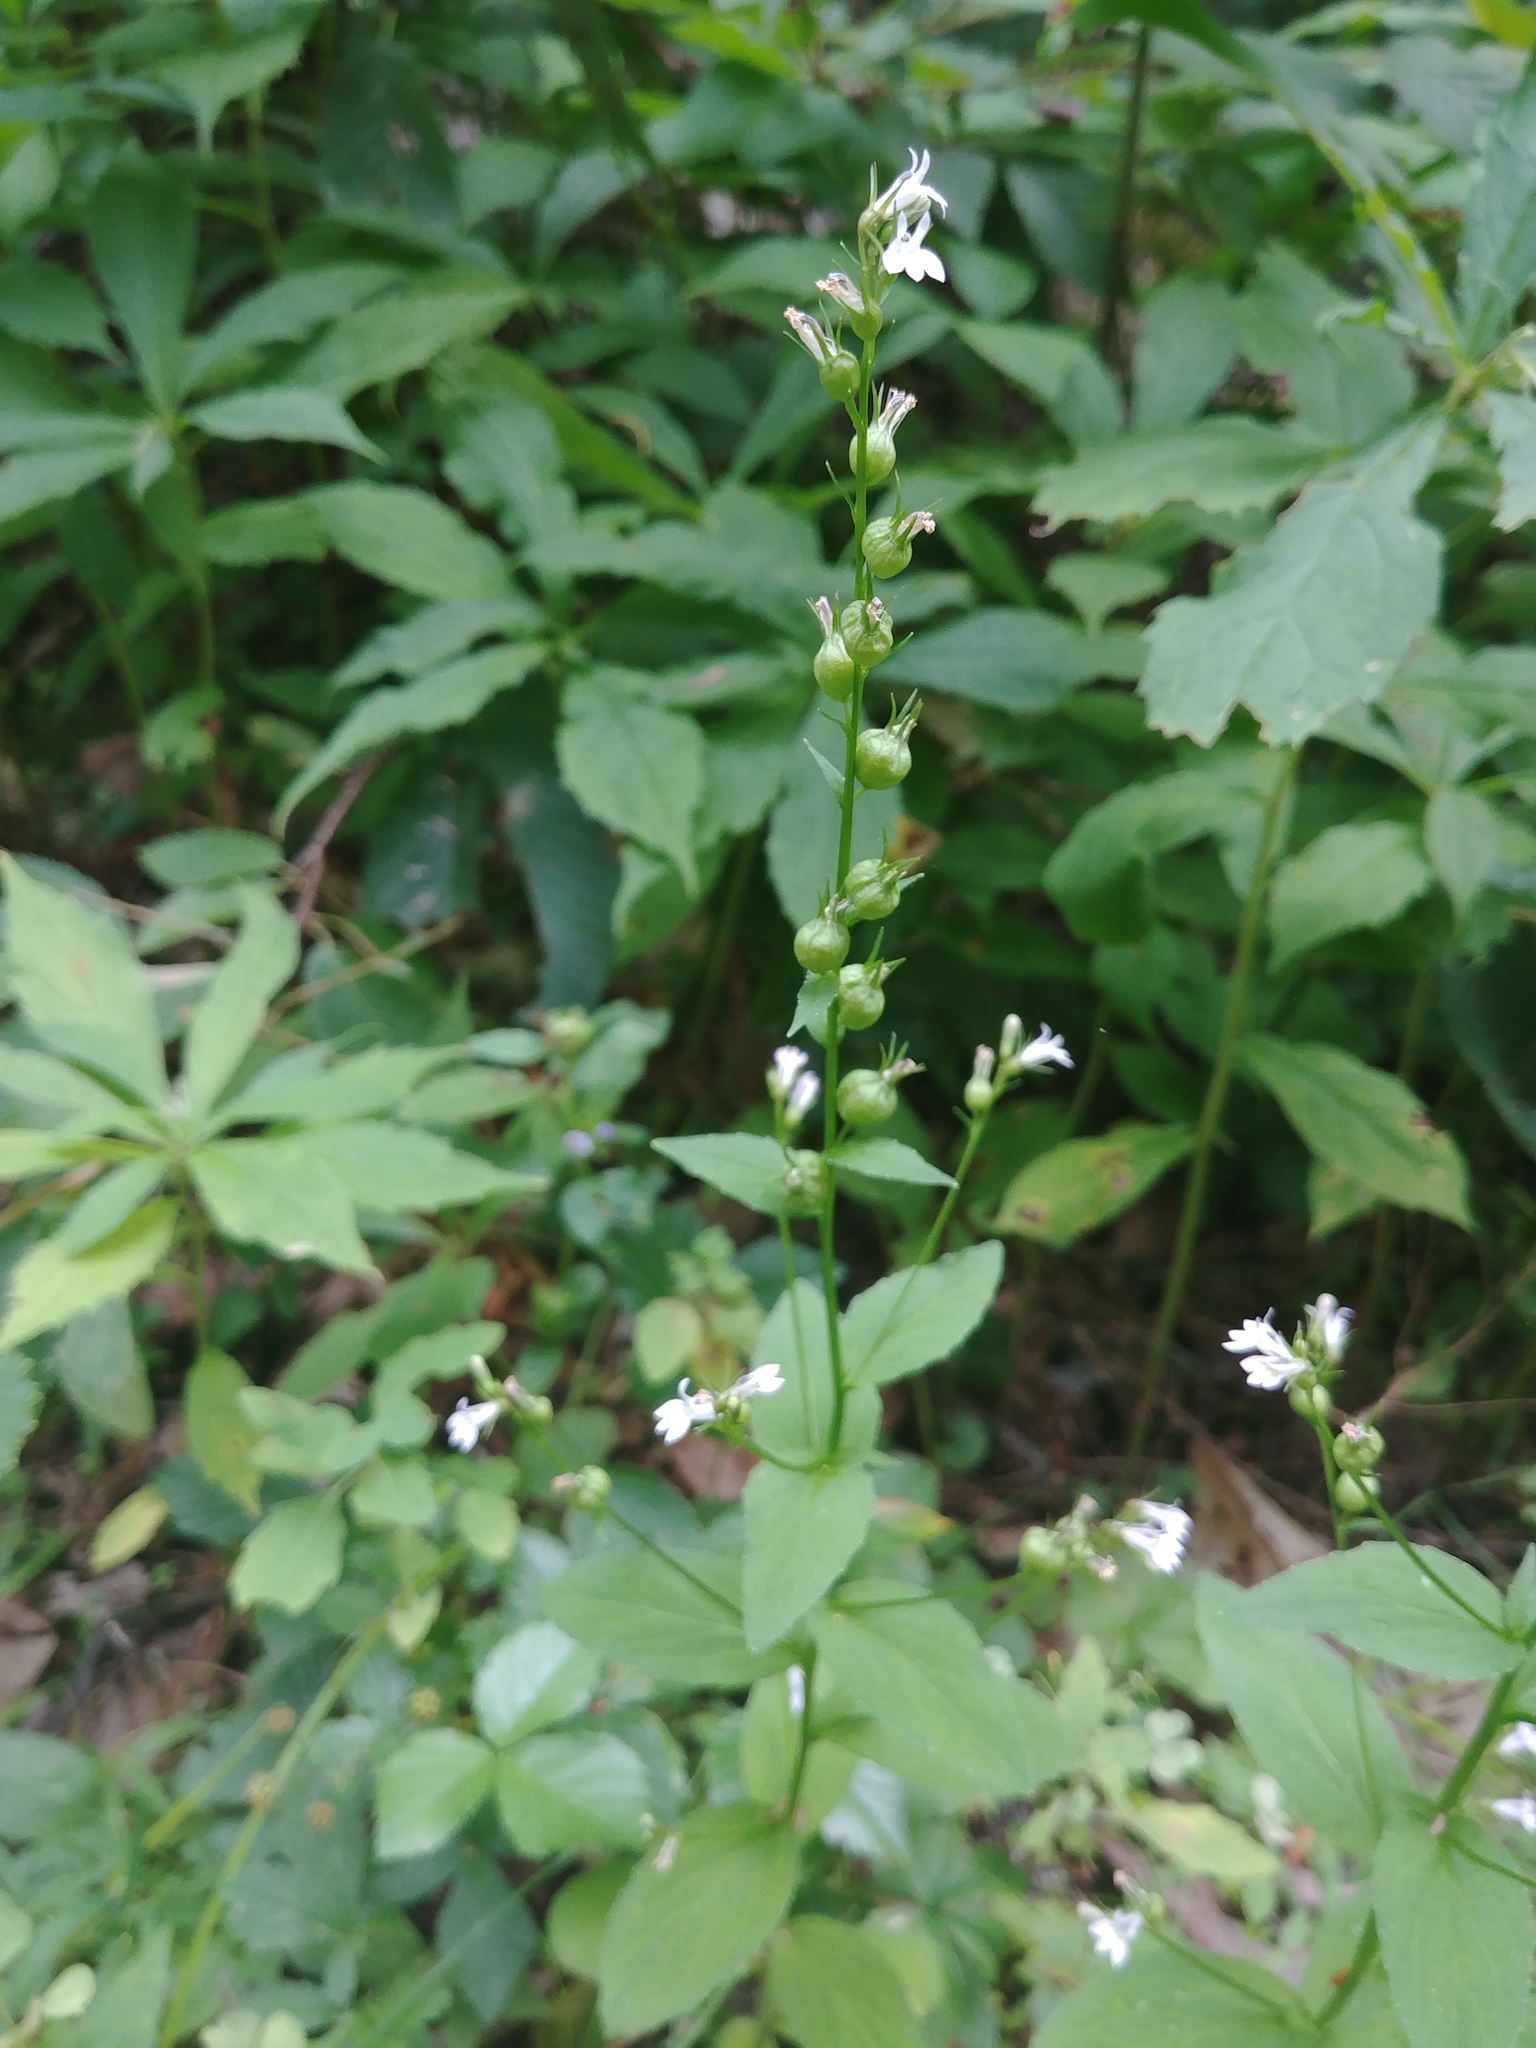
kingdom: Plantae
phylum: Tracheophyta
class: Magnoliopsida
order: Asterales
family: Campanulaceae
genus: Lobelia
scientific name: Lobelia inflata
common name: Indian tobacco
